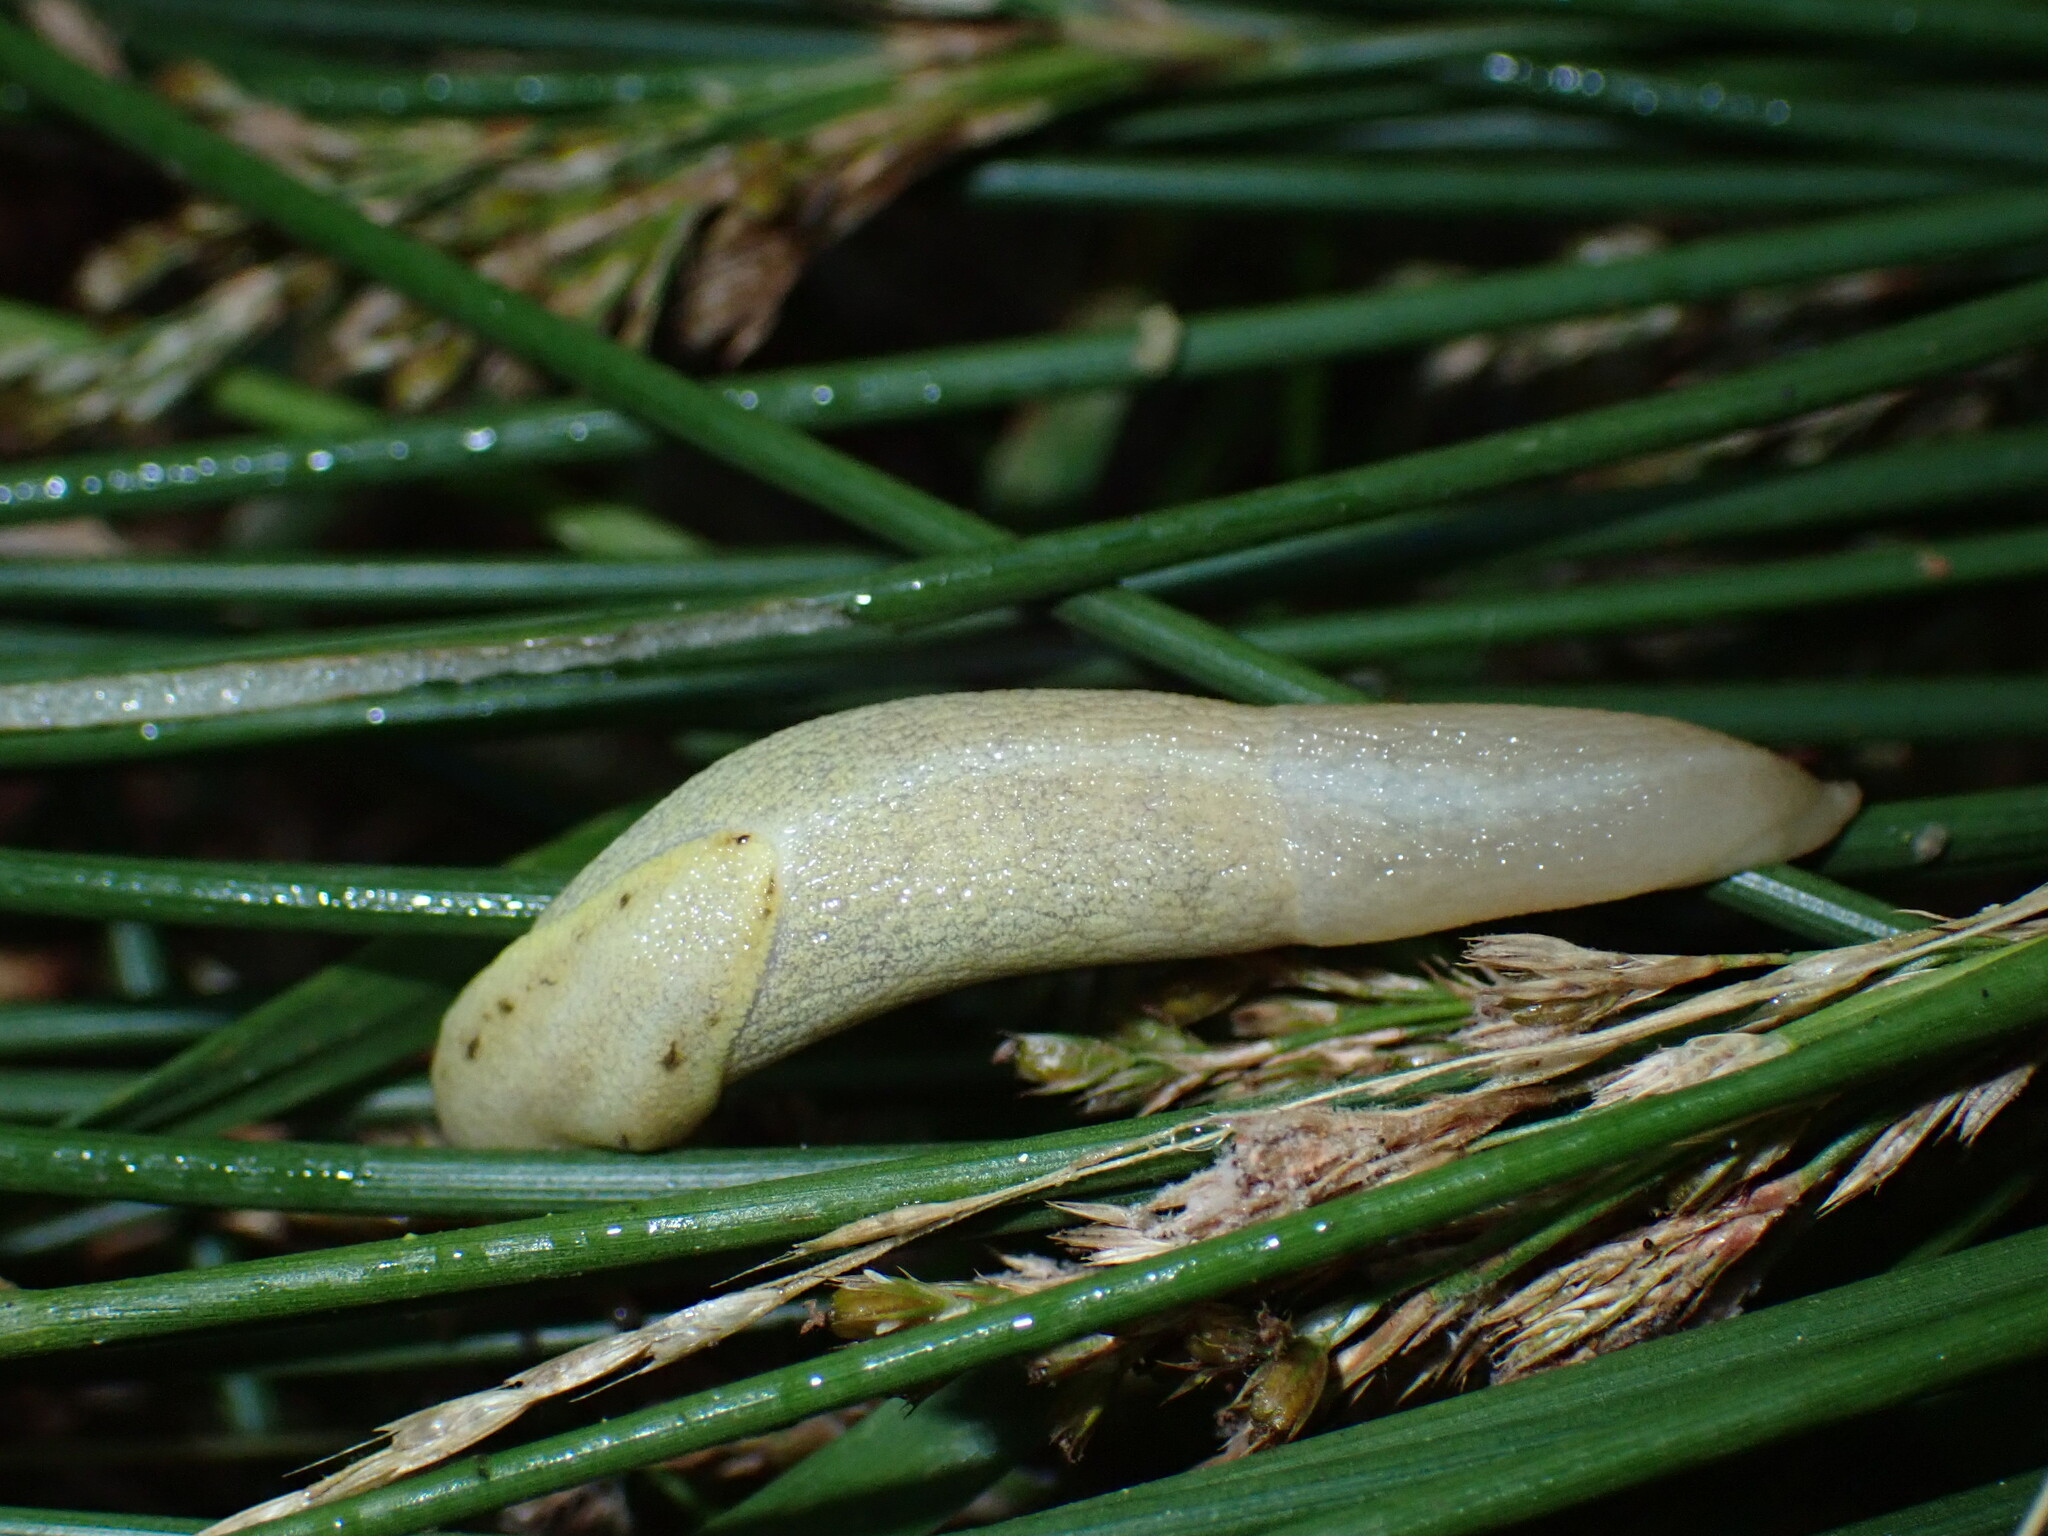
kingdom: Animalia
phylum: Mollusca
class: Gastropoda
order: Stylommatophora
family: Ariolimacidae
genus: Prophysaon
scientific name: Prophysaon foliolatum
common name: Yellow-bordered taildropper
